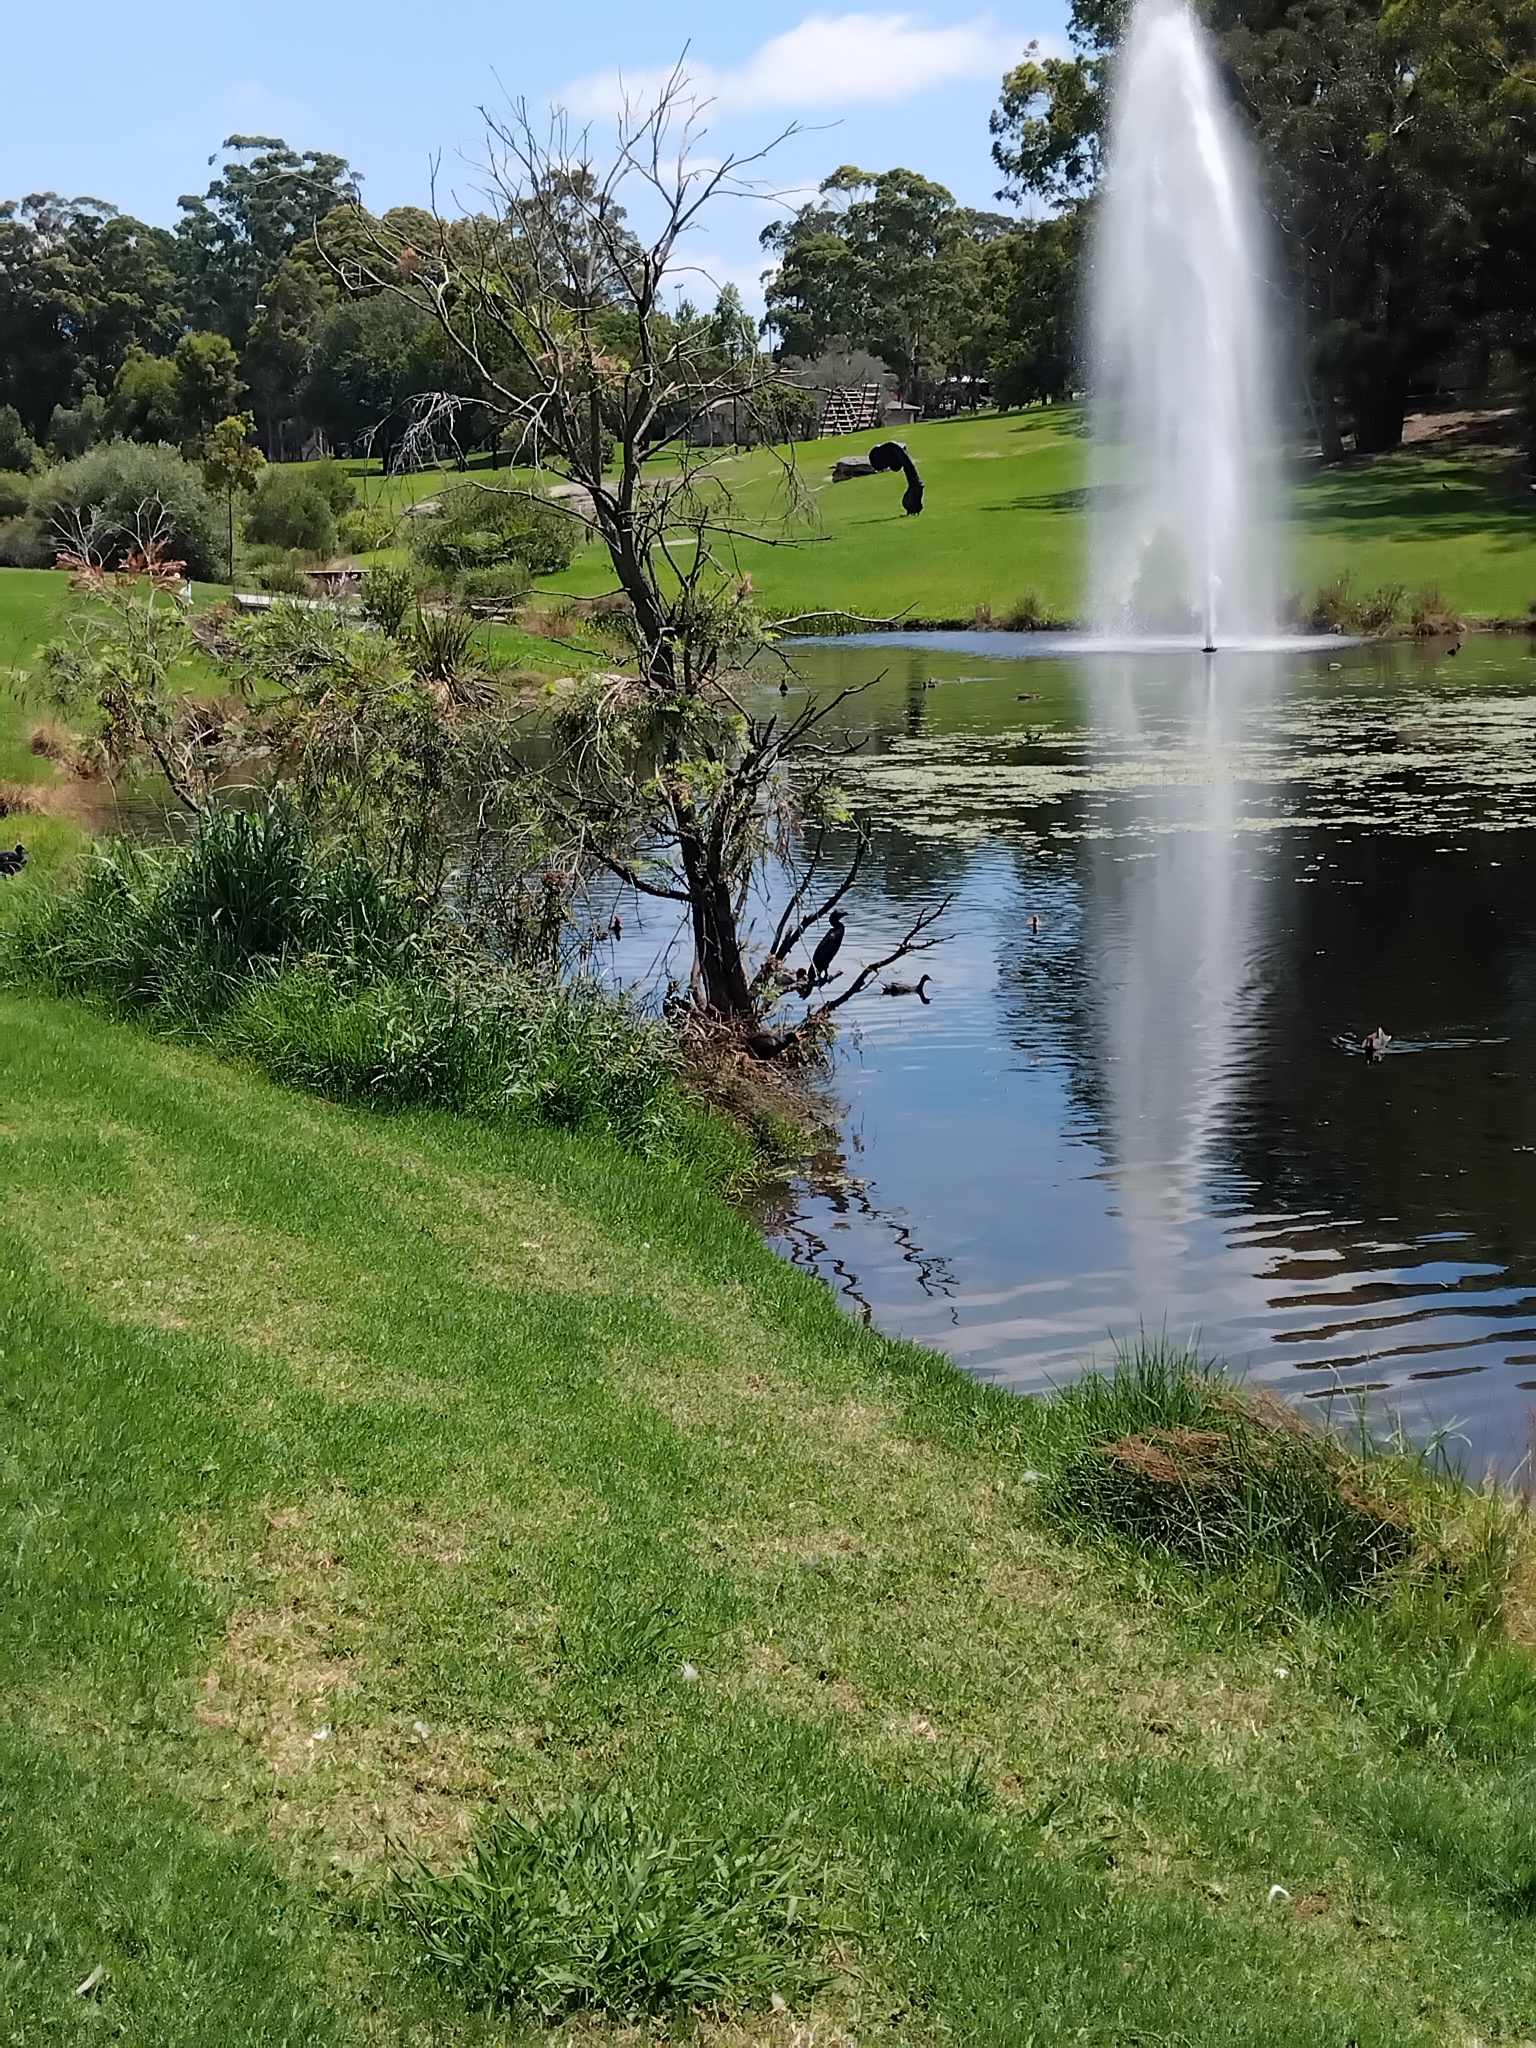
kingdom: Animalia
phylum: Chordata
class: Aves
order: Suliformes
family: Phalacrocoracidae
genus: Phalacrocorax
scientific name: Phalacrocorax sulcirostris
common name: Little black cormorant
